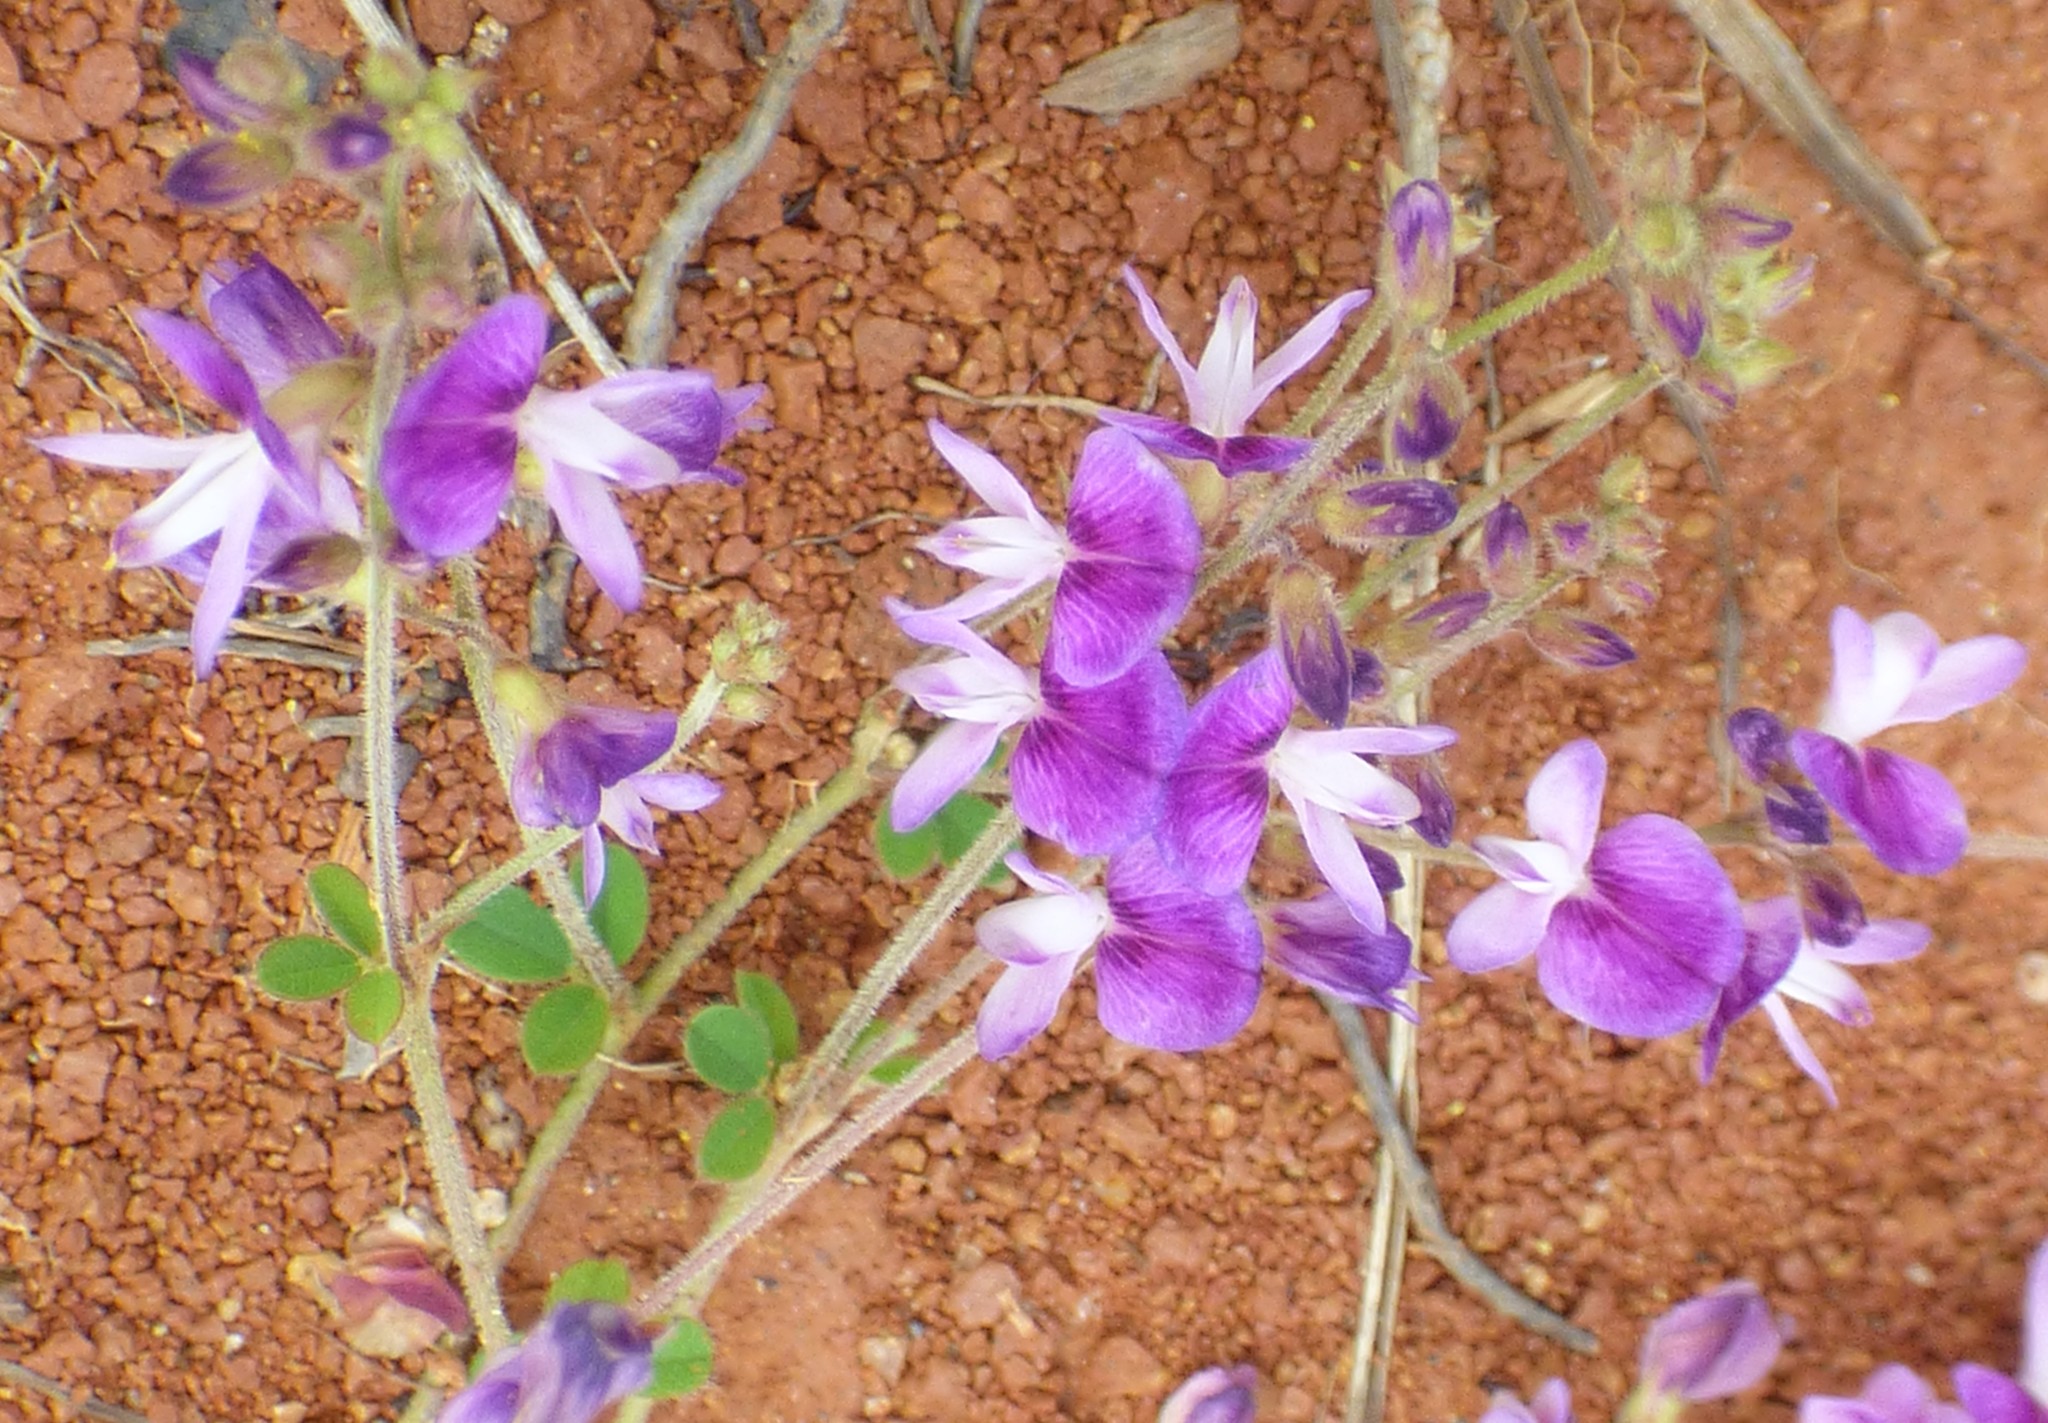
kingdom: Plantae
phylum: Tracheophyta
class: Magnoliopsida
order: Fabales
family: Fabaceae
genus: Lespedeza
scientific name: Lespedeza procumbens
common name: Downy trailing bush-clover
